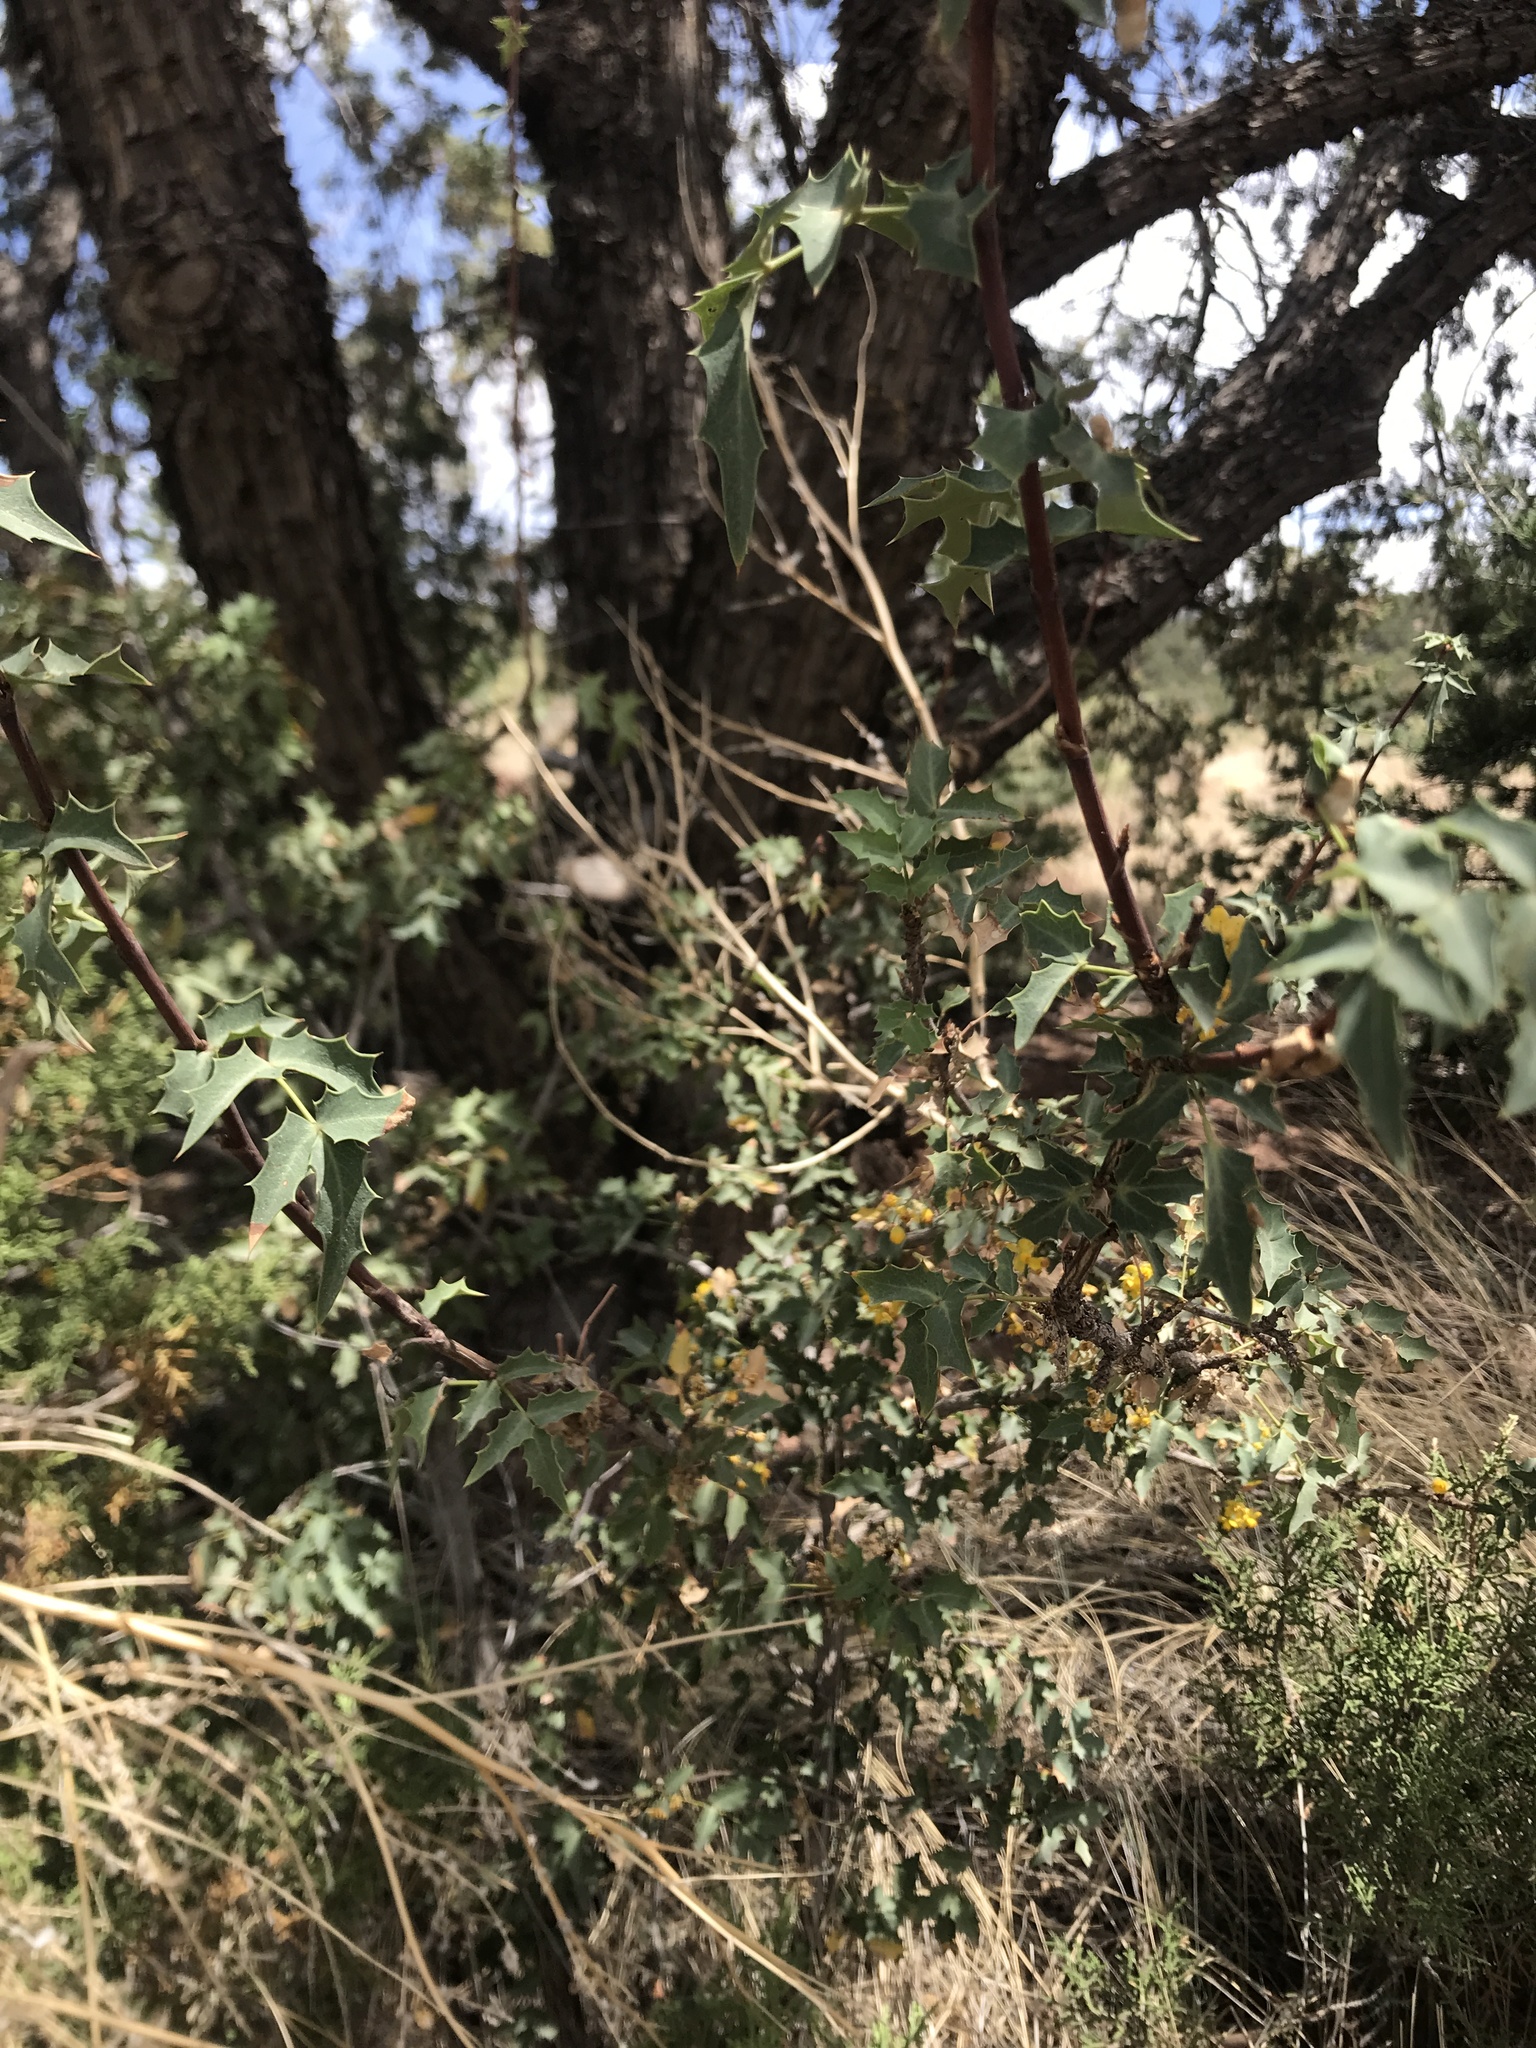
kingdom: Plantae
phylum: Tracheophyta
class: Magnoliopsida
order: Ranunculales
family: Berberidaceae
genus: Alloberberis
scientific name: Alloberberis fremontii
